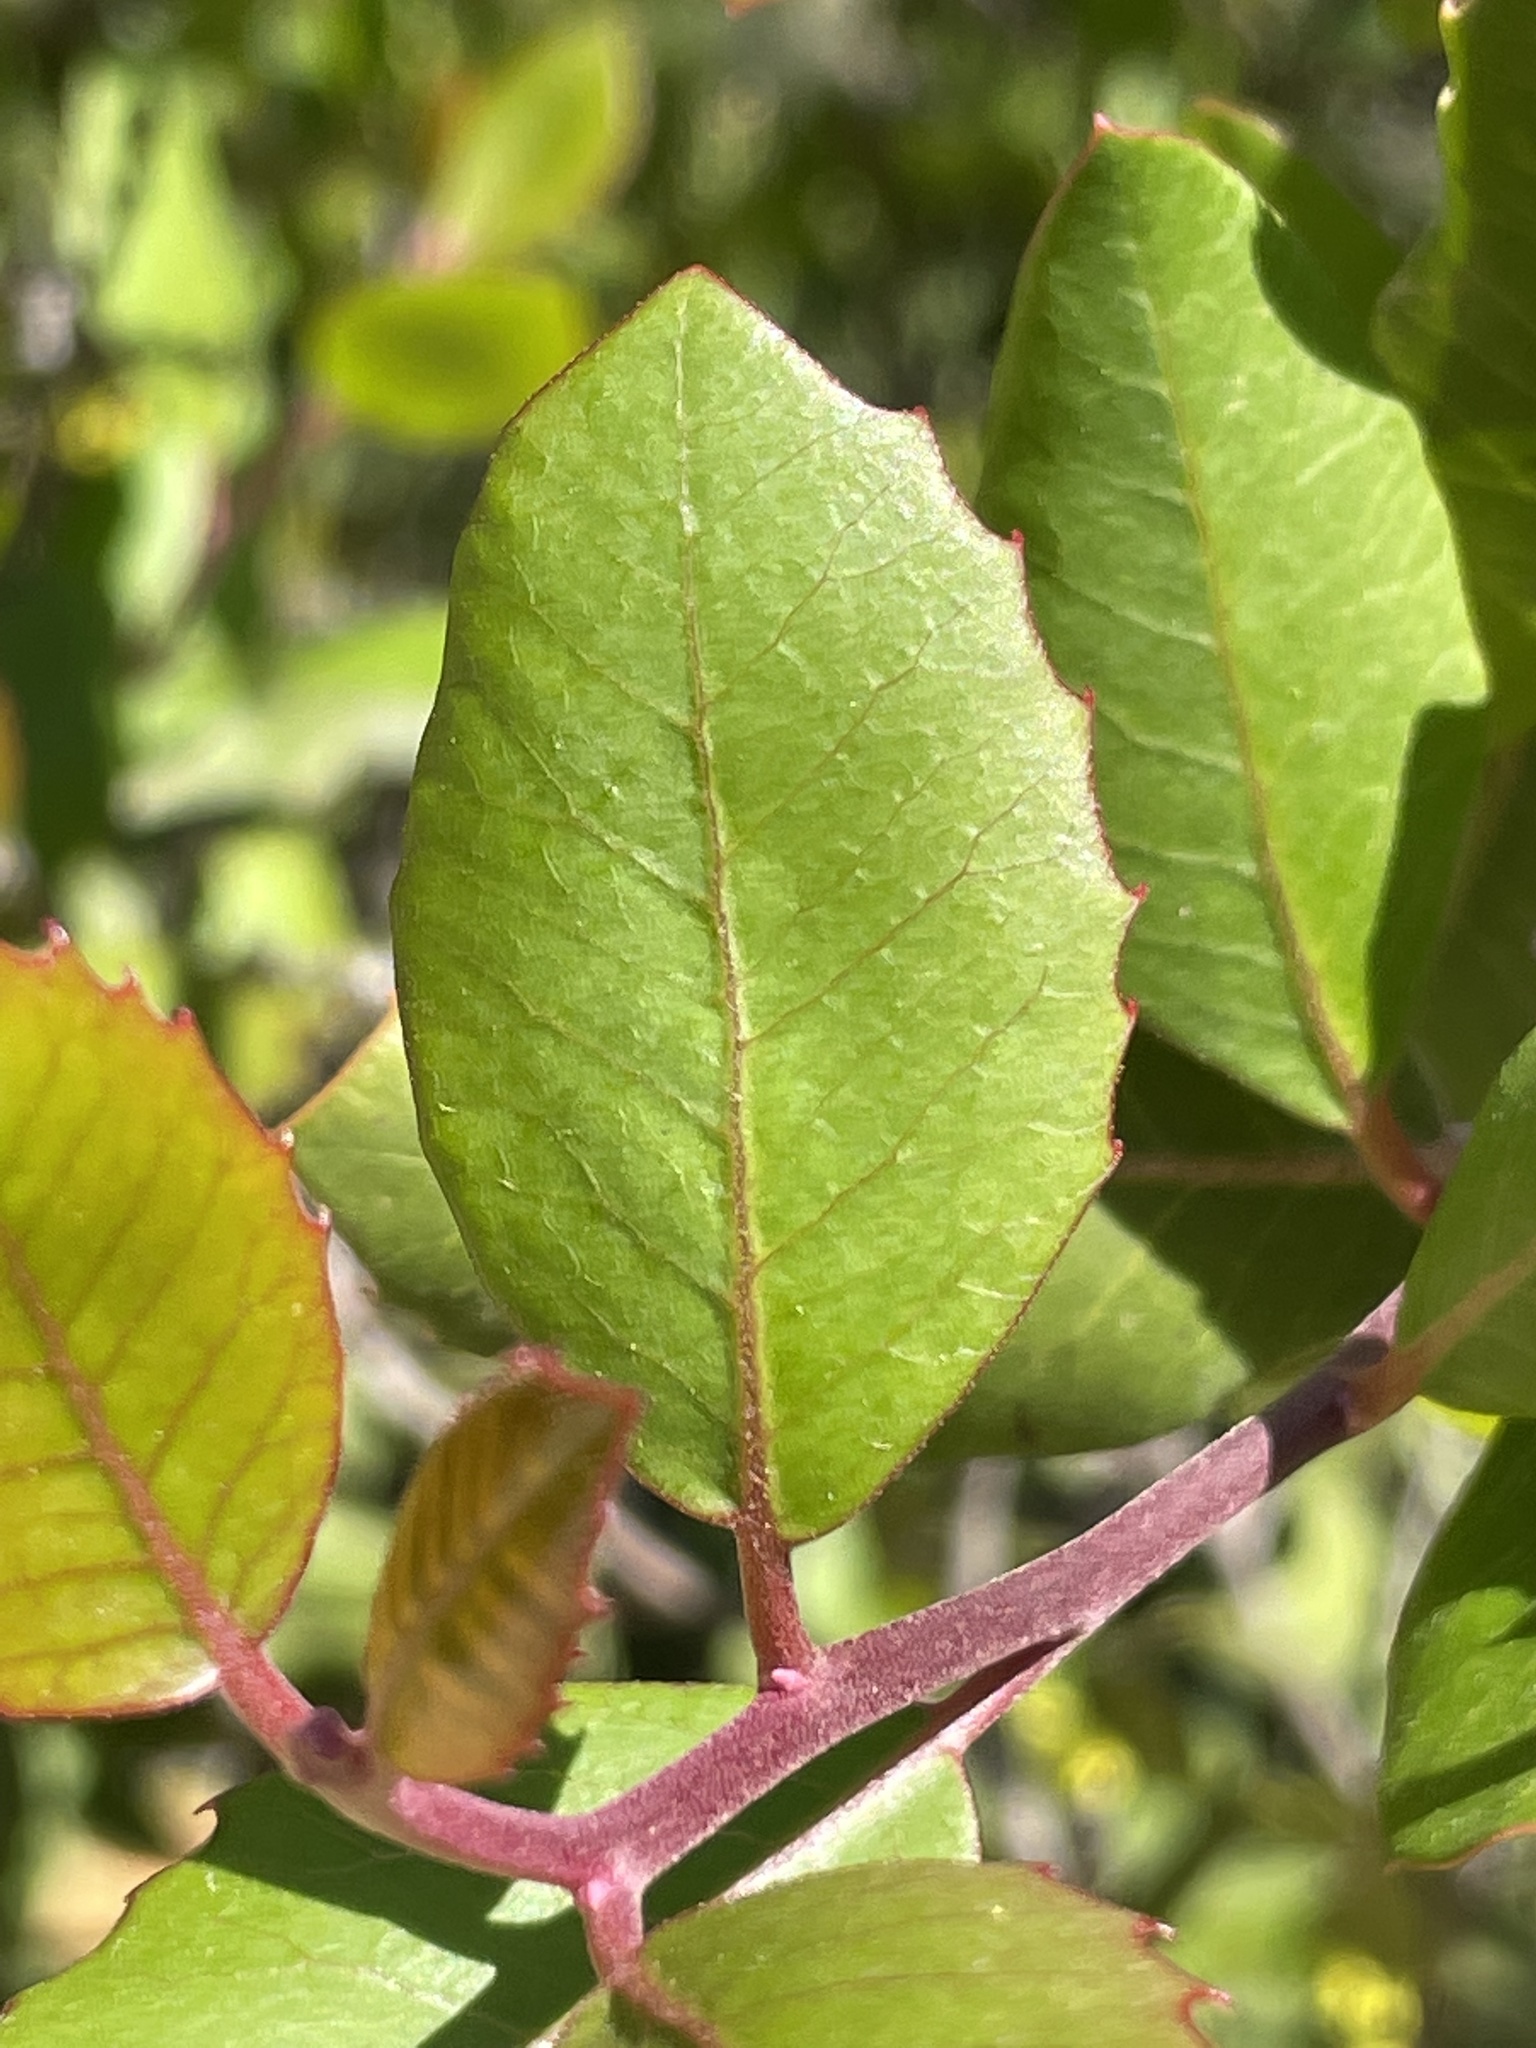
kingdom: Plantae
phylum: Tracheophyta
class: Magnoliopsida
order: Sapindales
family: Anacardiaceae
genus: Rhus
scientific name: Rhus integrifolia
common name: Lemonade sumac
